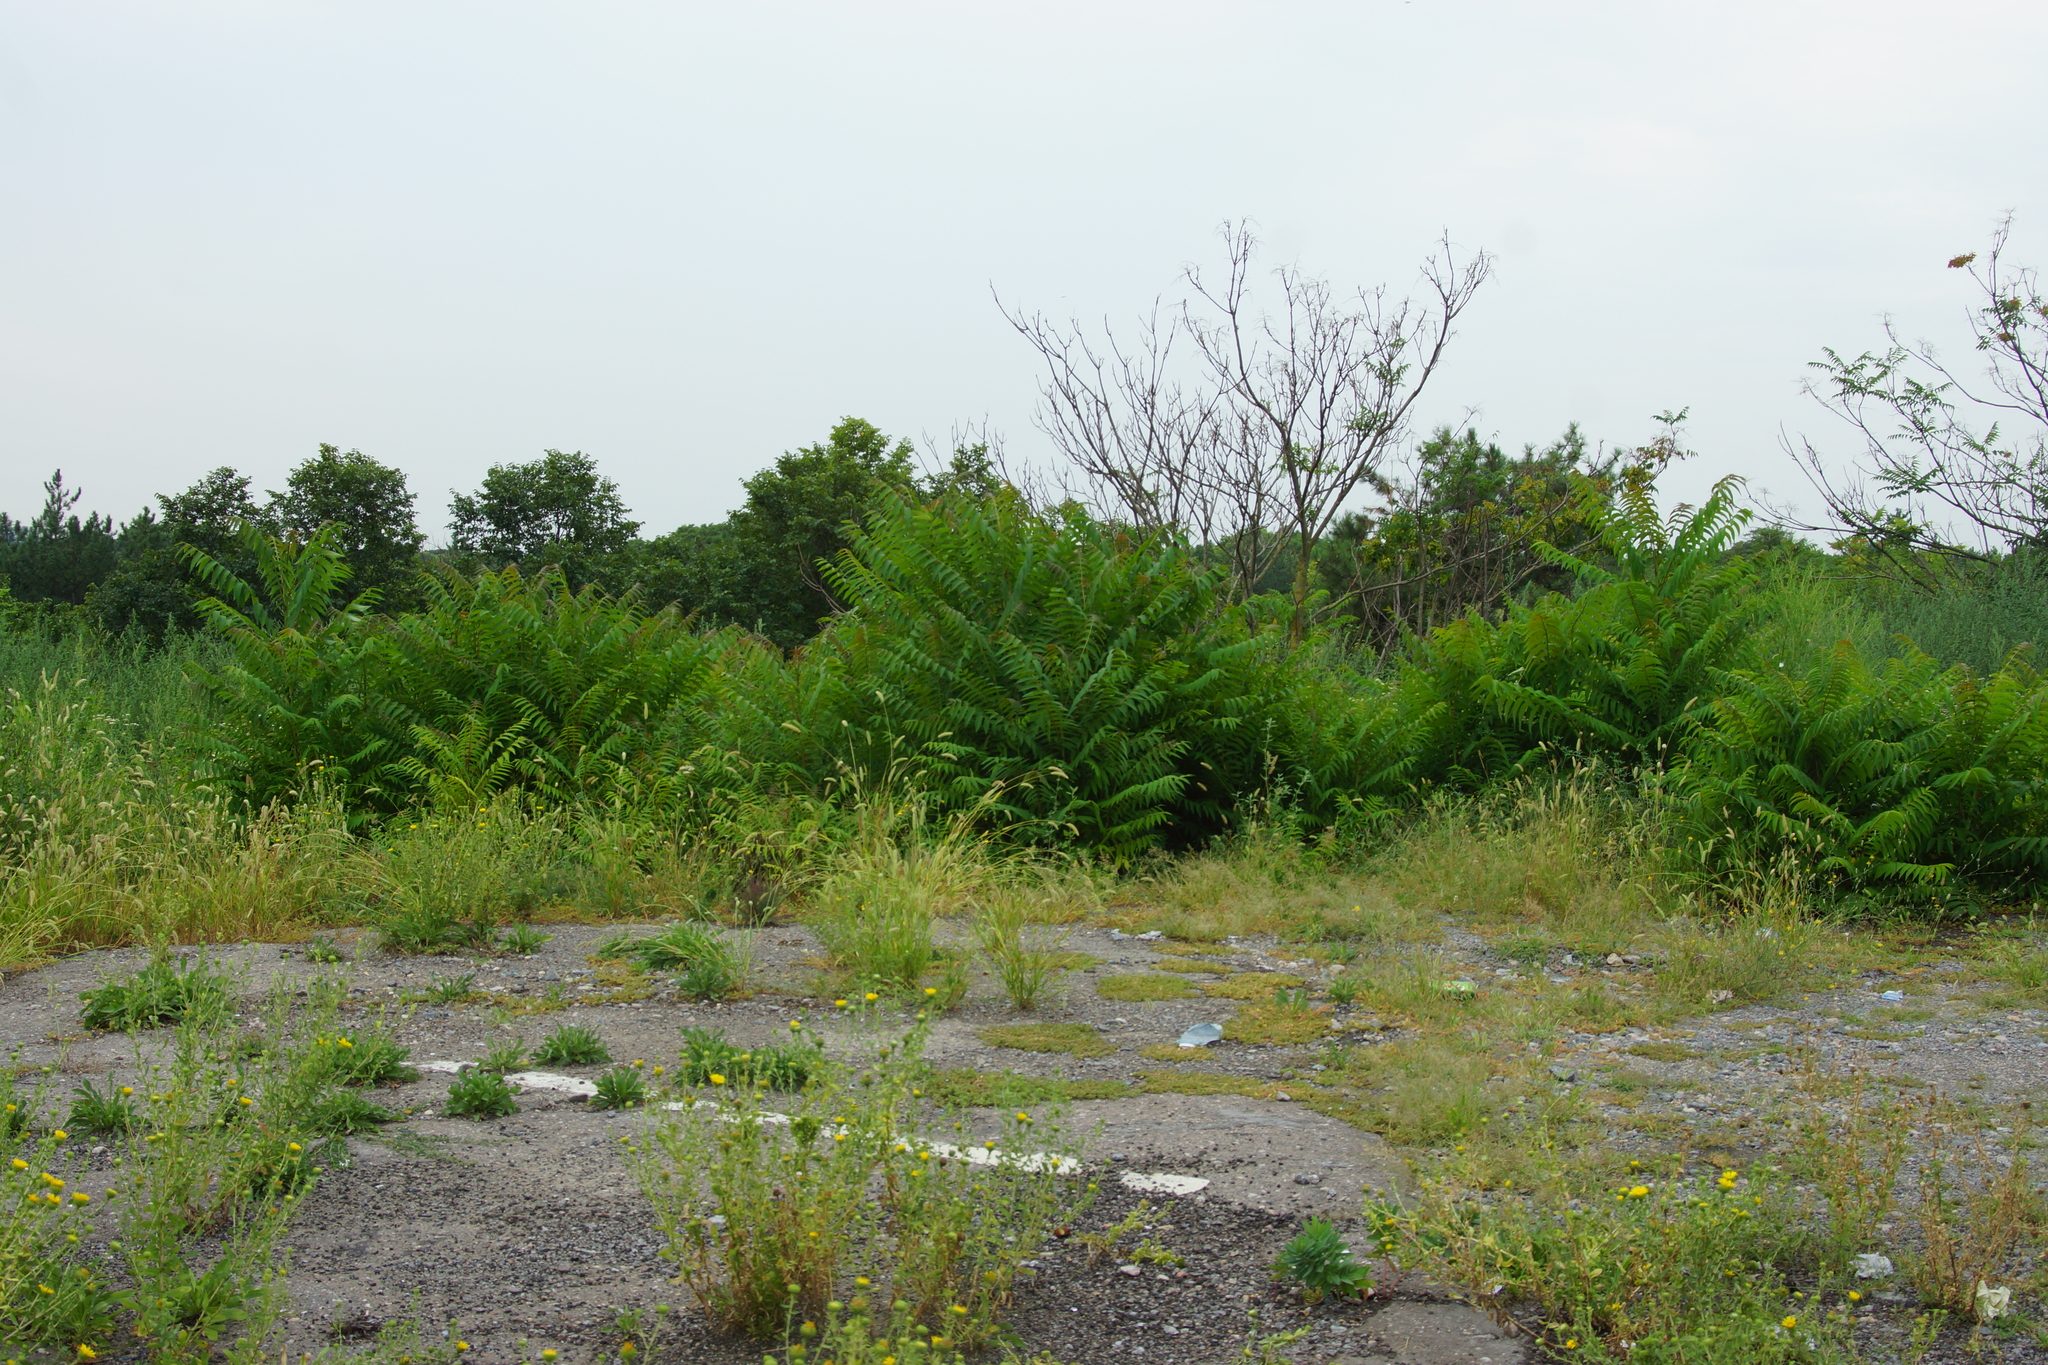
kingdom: Plantae
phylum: Tracheophyta
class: Magnoliopsida
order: Sapindales
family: Simaroubaceae
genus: Ailanthus
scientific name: Ailanthus altissima
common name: Tree-of-heaven
